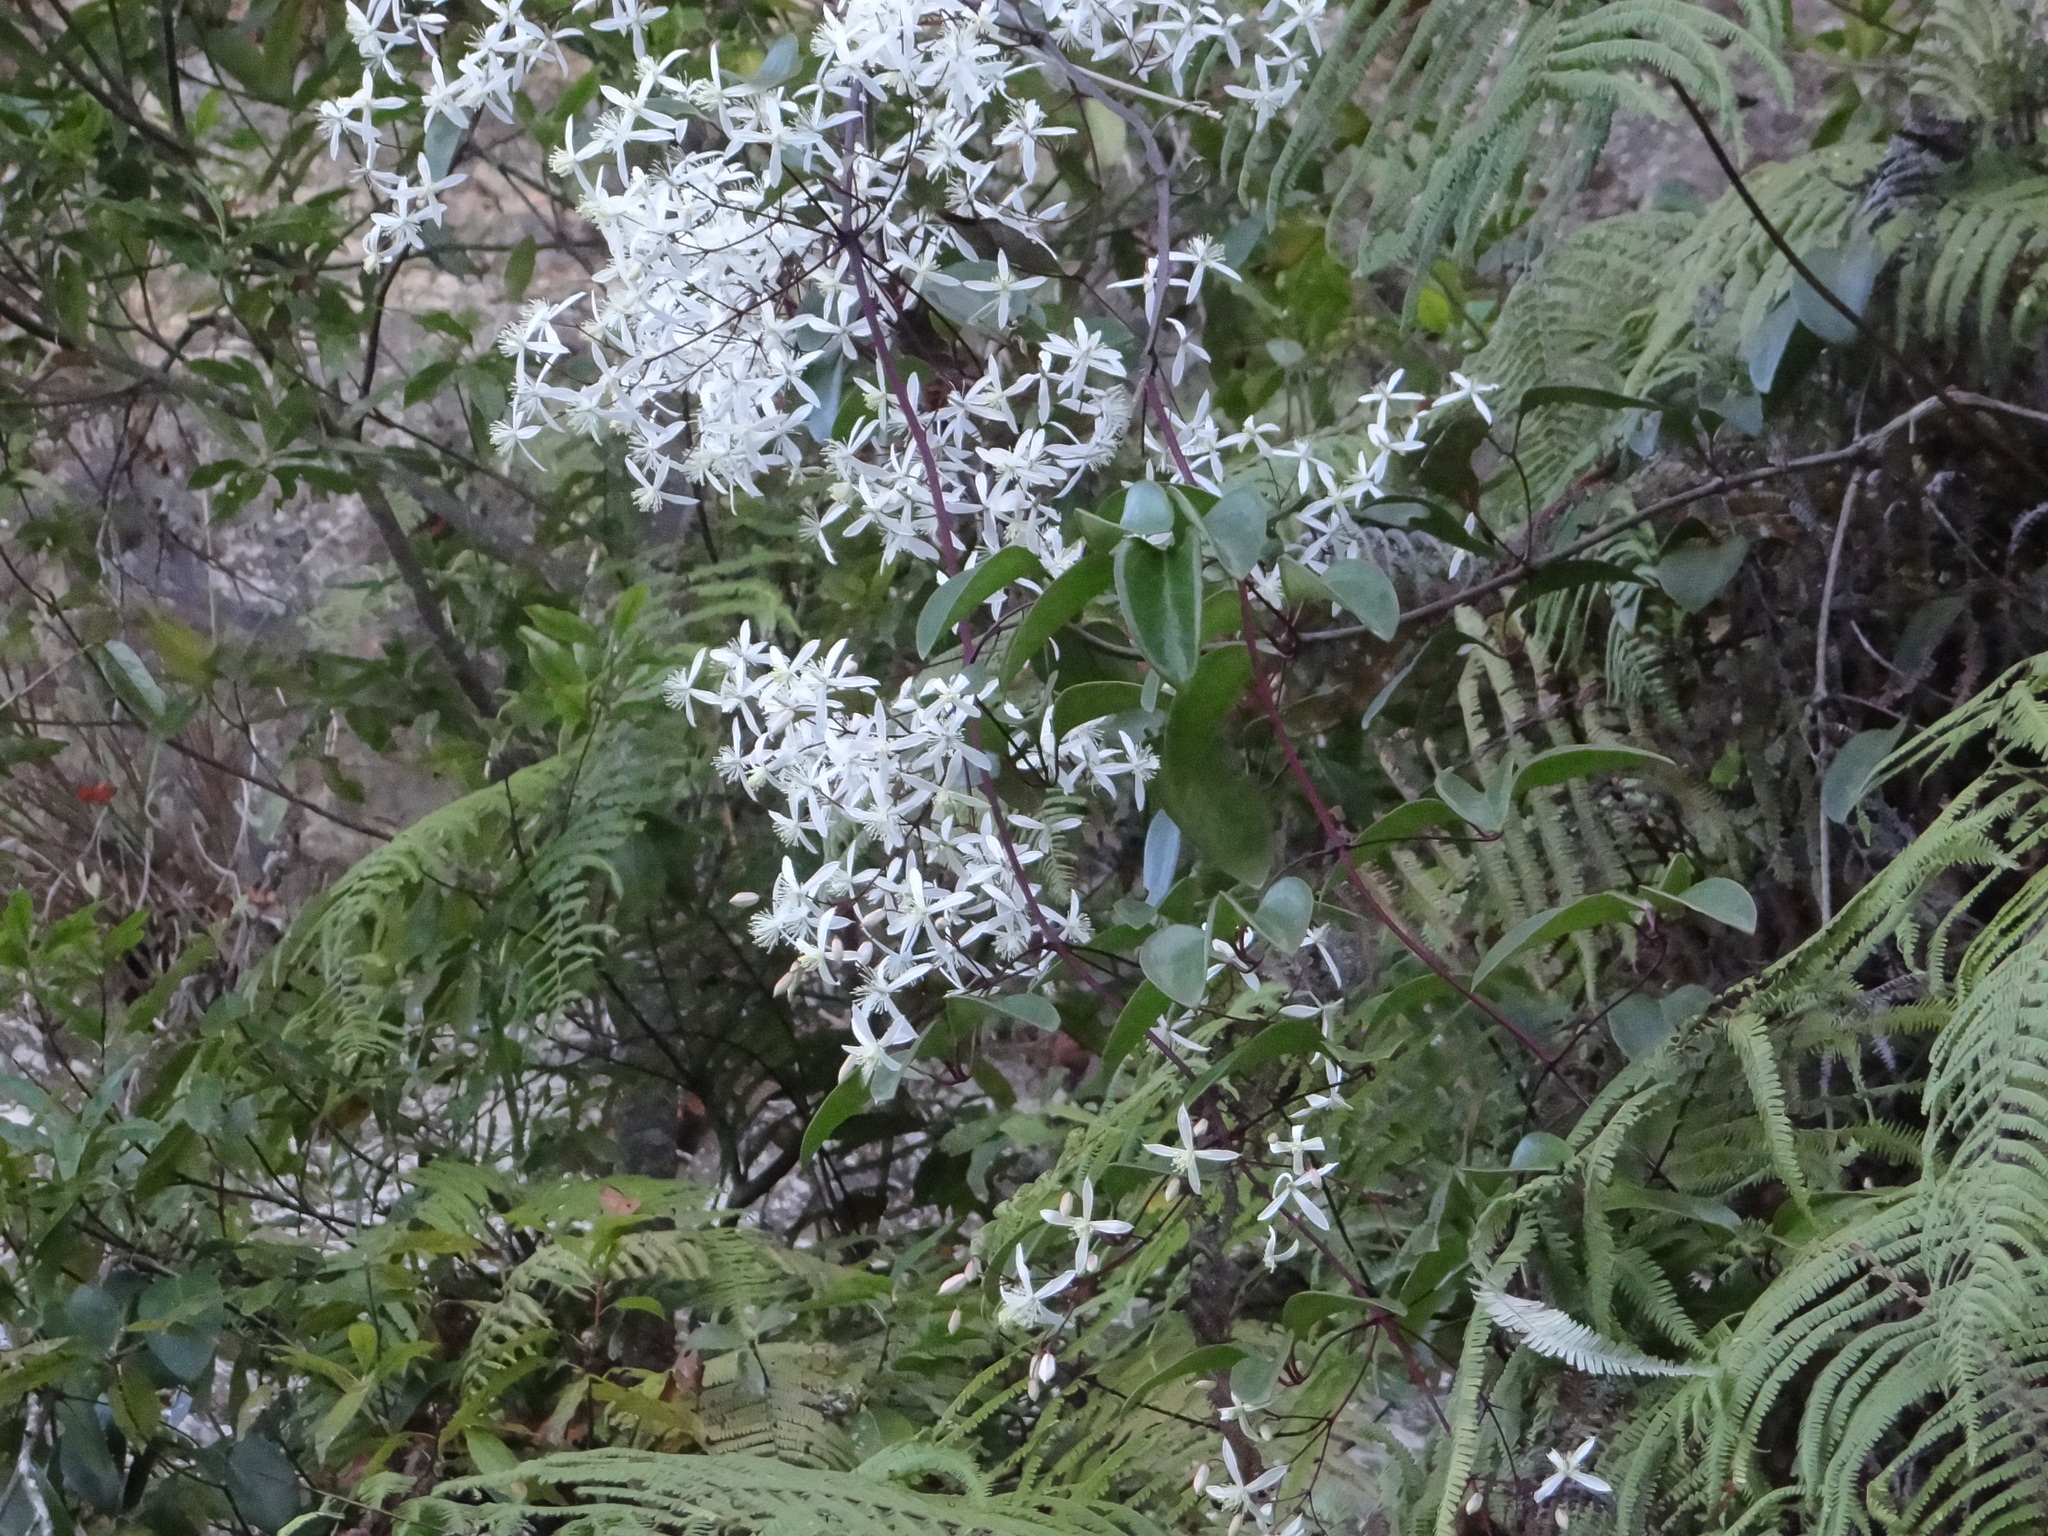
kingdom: Plantae
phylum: Tracheophyta
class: Magnoliopsida
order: Ranunculales
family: Ranunculaceae
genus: Clematis
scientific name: Clematis crassifolia
